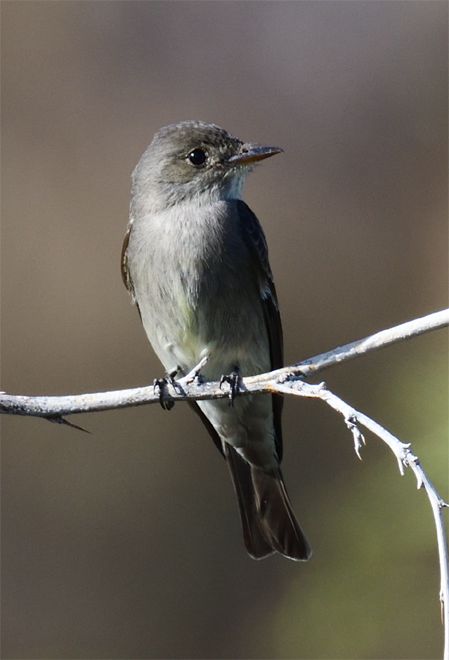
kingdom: Animalia
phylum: Chordata
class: Aves
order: Passeriformes
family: Tyrannidae
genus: Contopus
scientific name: Contopus sordidulus
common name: Western wood-pewee
